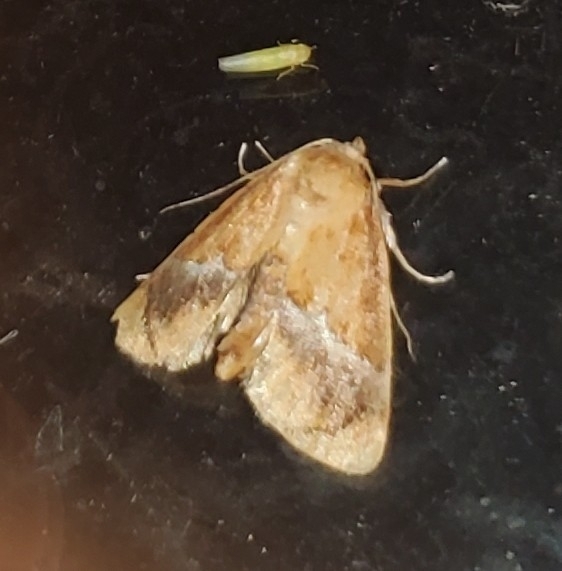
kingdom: Animalia
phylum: Arthropoda
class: Insecta
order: Lepidoptera
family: Limacodidae
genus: Lithacodes
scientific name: Lithacodes fasciola
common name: Yellow-shouldered slug moth
